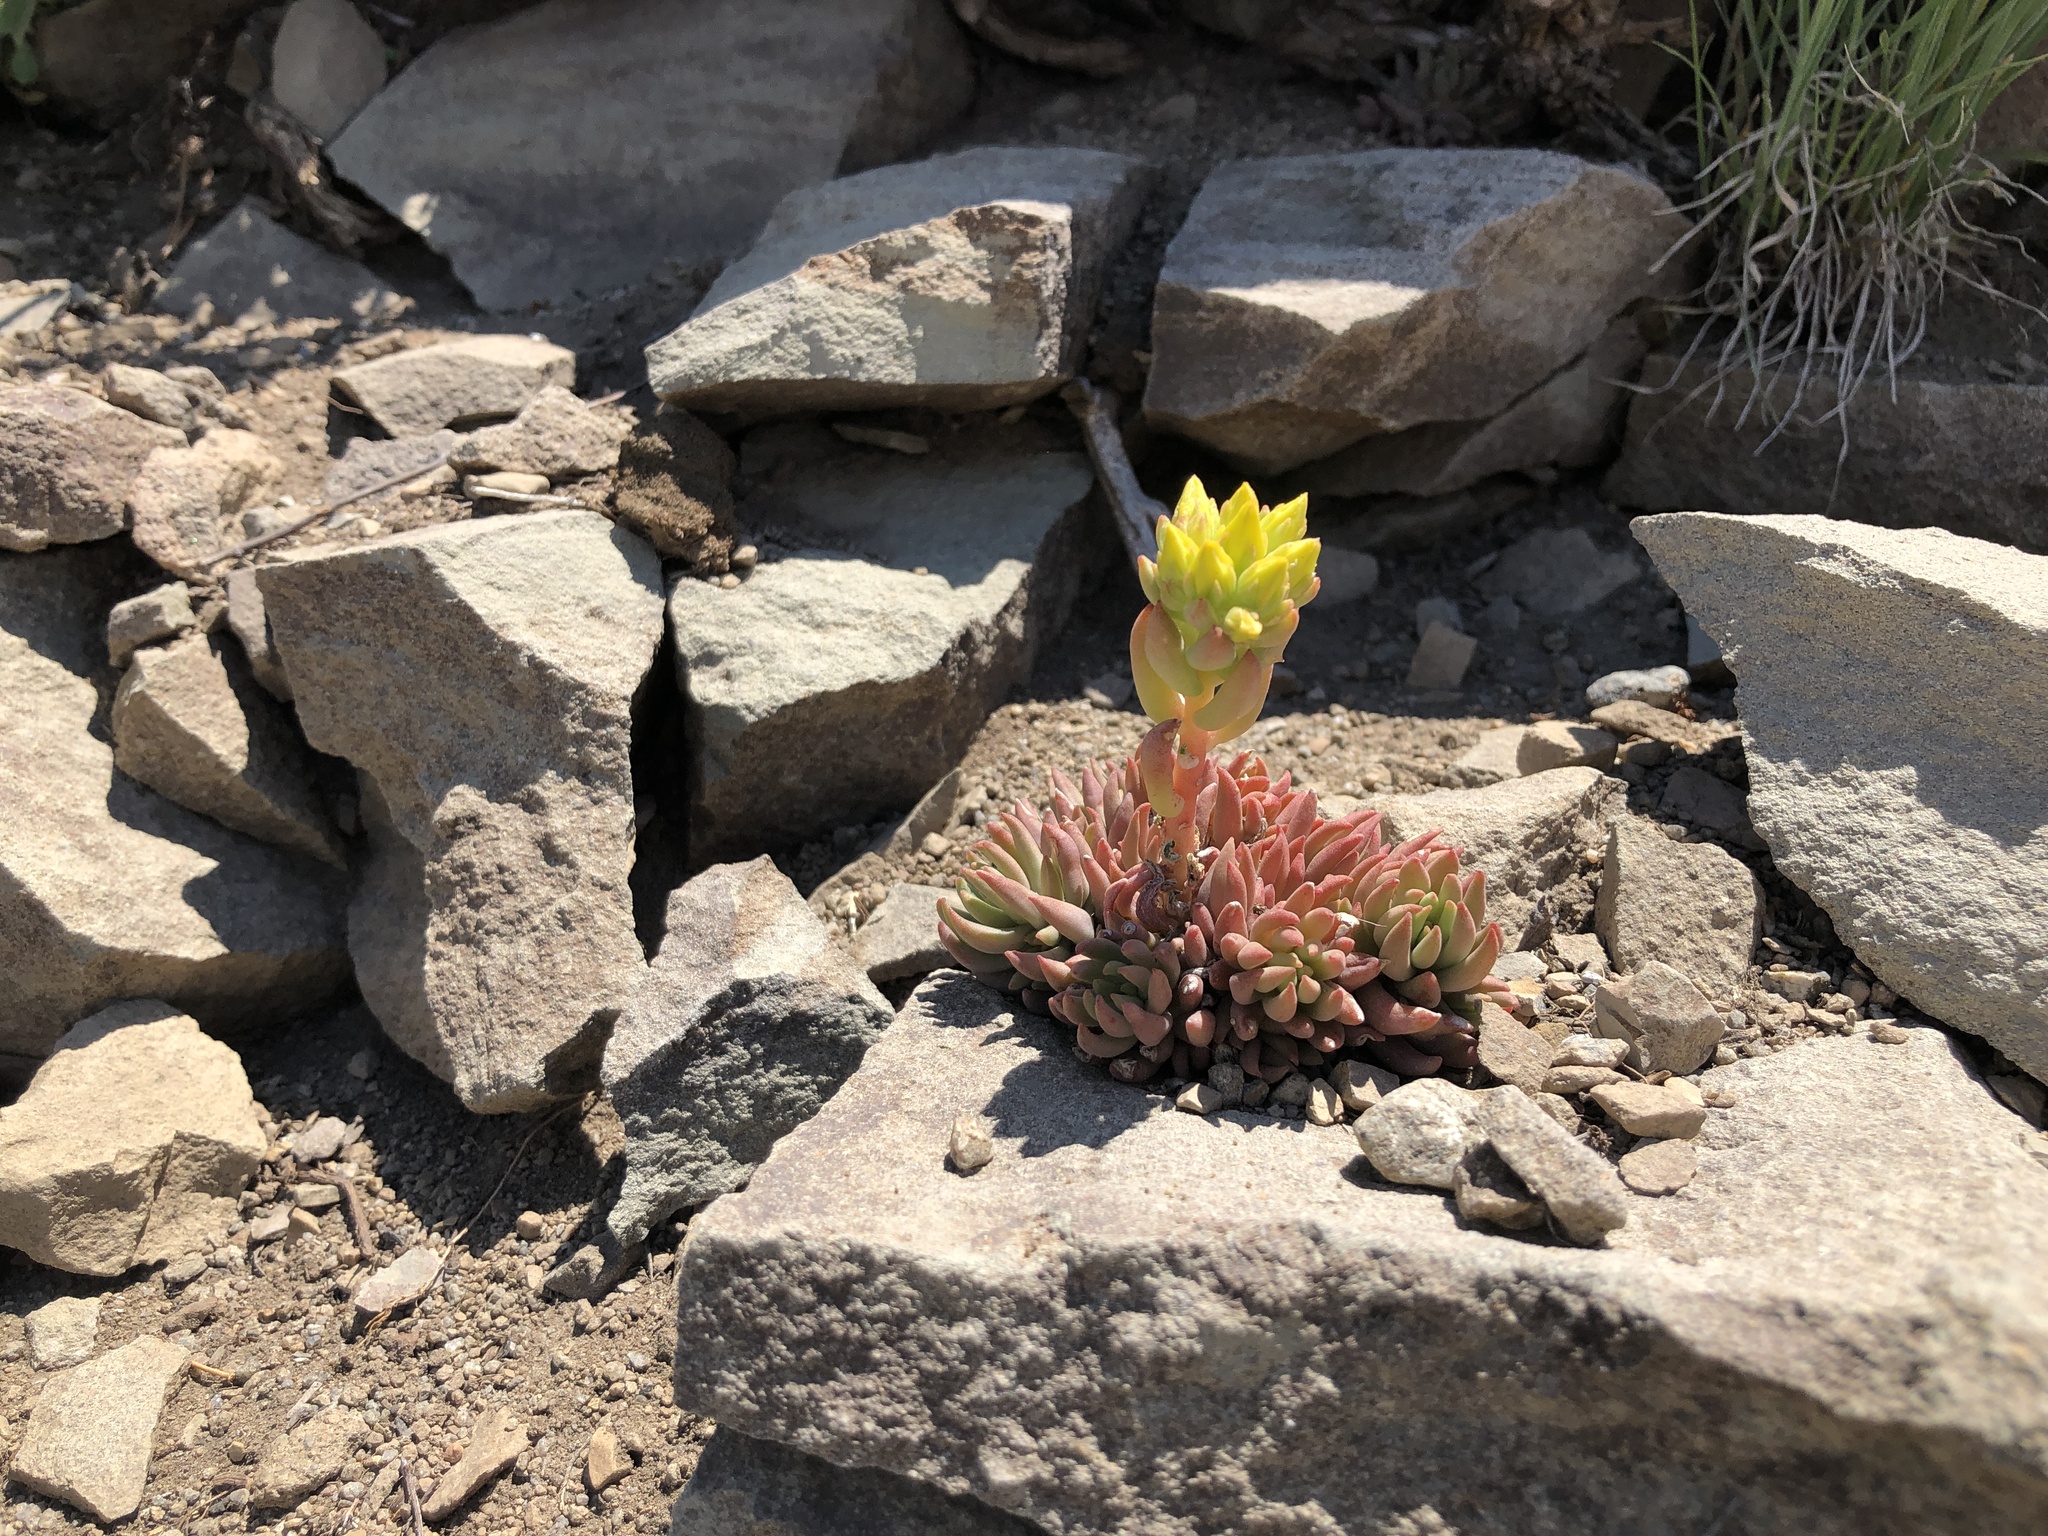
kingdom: Plantae
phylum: Tracheophyta
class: Magnoliopsida
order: Saxifragales
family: Crassulaceae
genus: Sedum
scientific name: Sedum lanceolatum
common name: Common stonecrop
